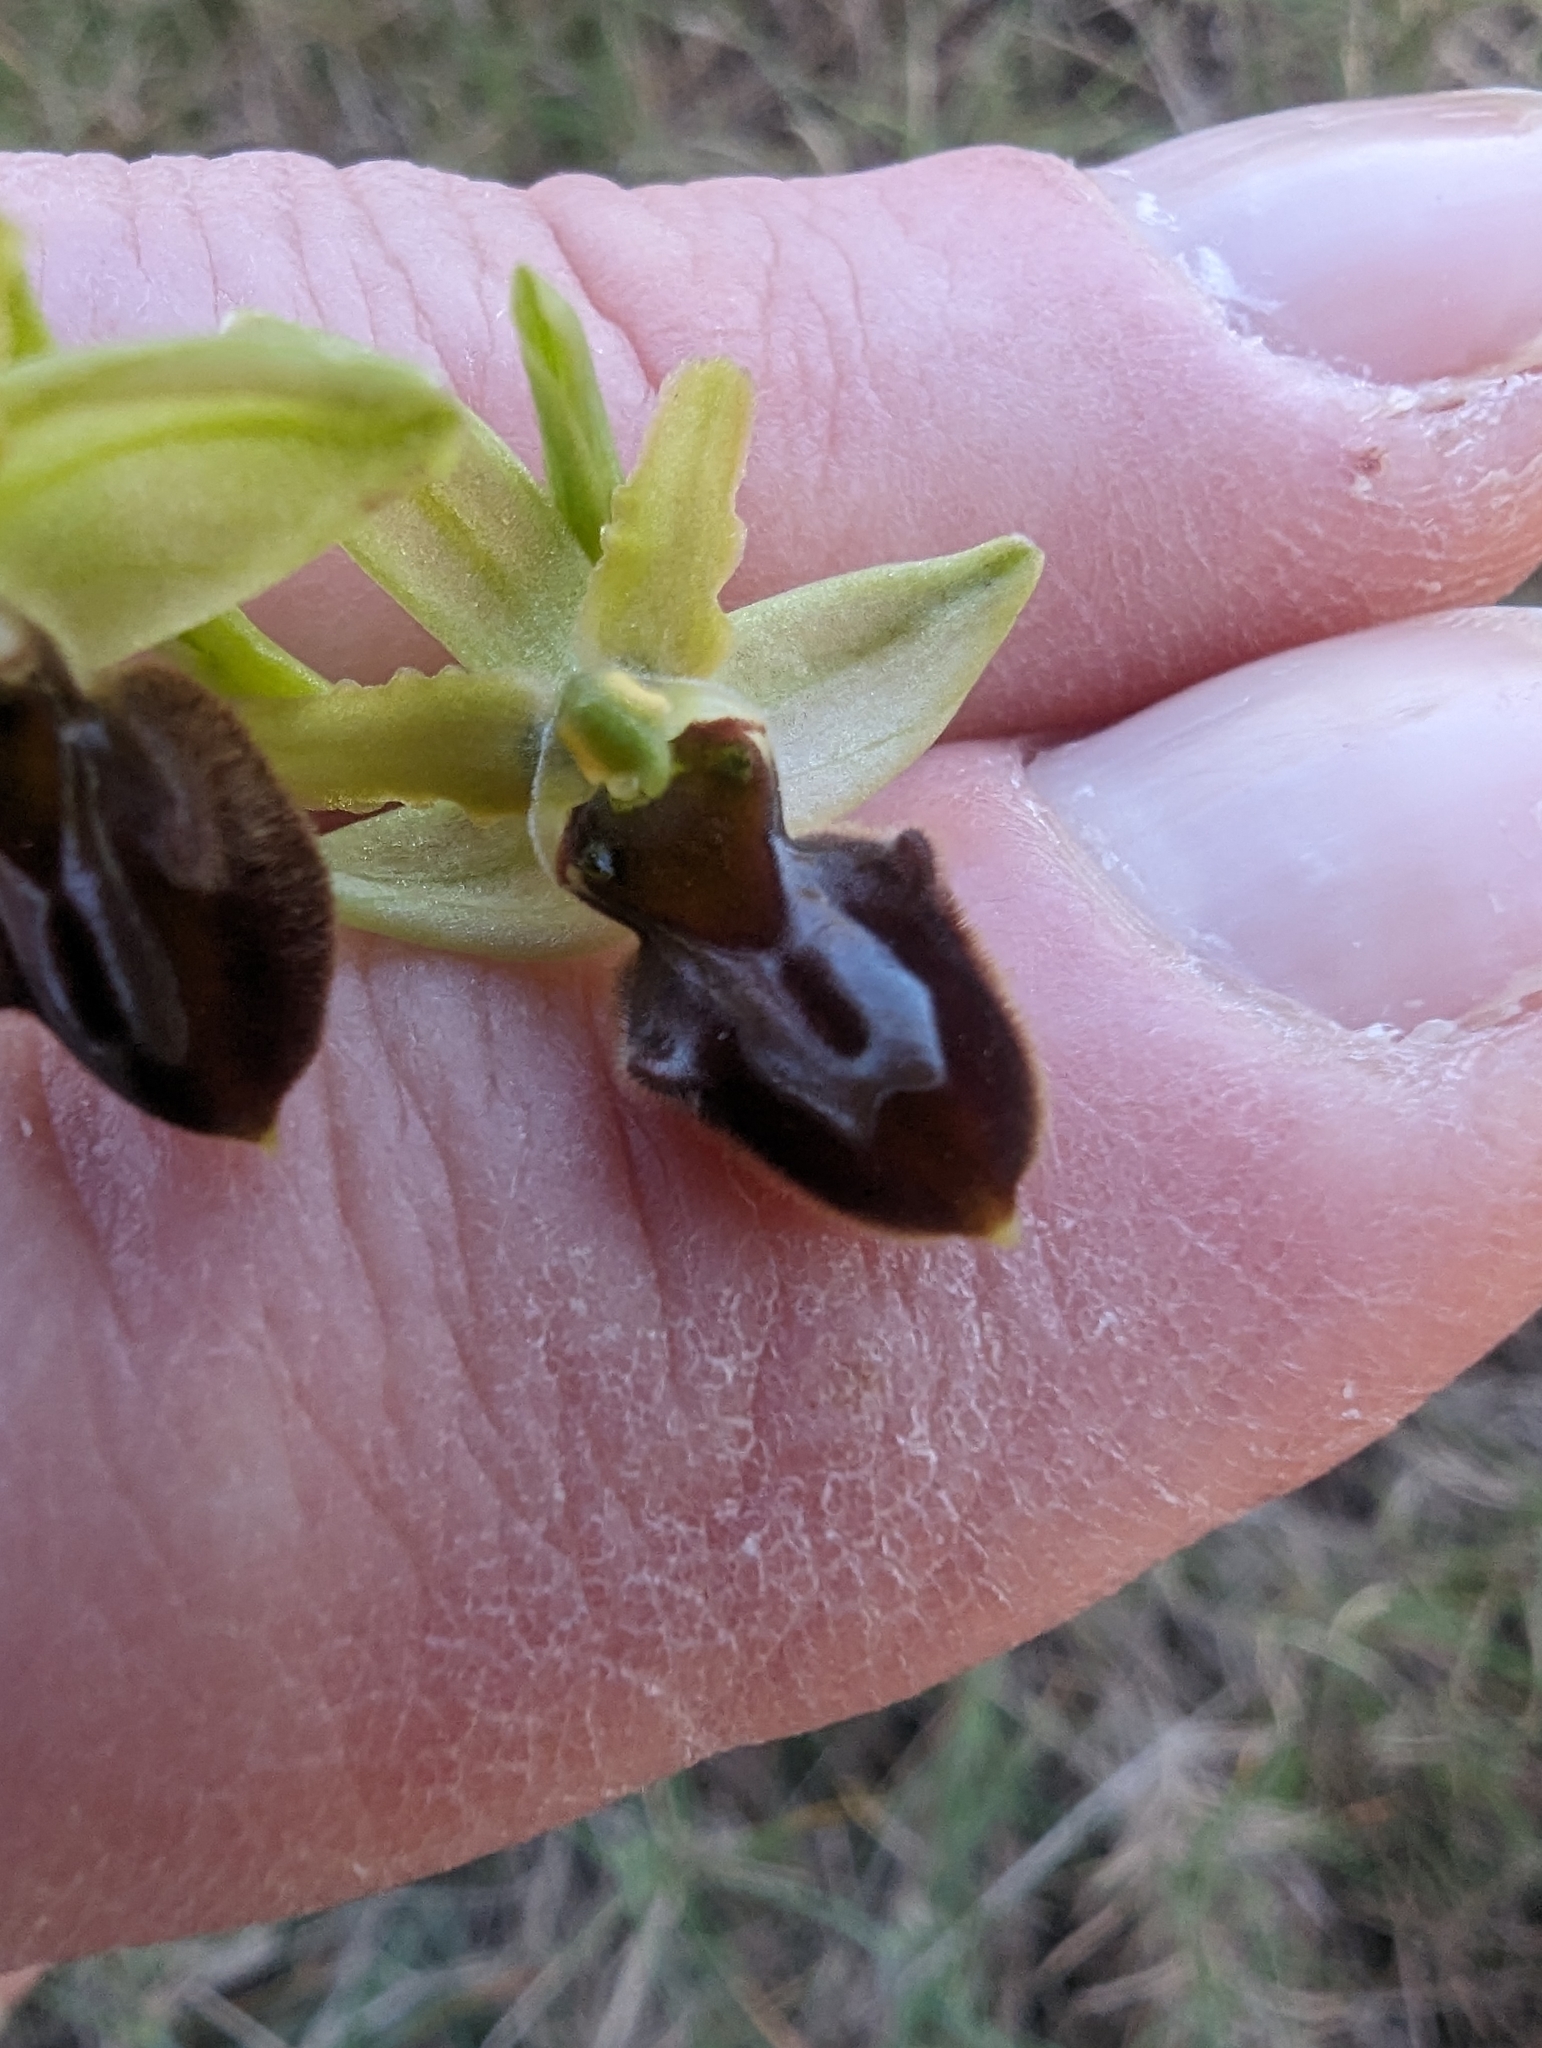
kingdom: Plantae
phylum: Tracheophyta
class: Liliopsida
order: Asparagales
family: Orchidaceae
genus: Ophrys
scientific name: Ophrys sphegodes
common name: Early spider-orchid
